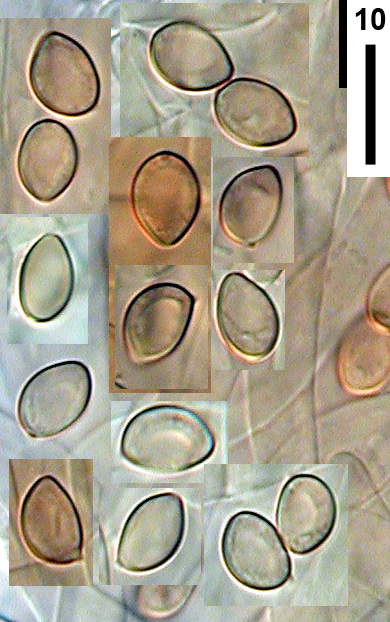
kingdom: Fungi
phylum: Basidiomycota
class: Agaricomycetes
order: Agaricales
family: Inocybaceae
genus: Inocybe
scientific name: Inocybe dissimilis
